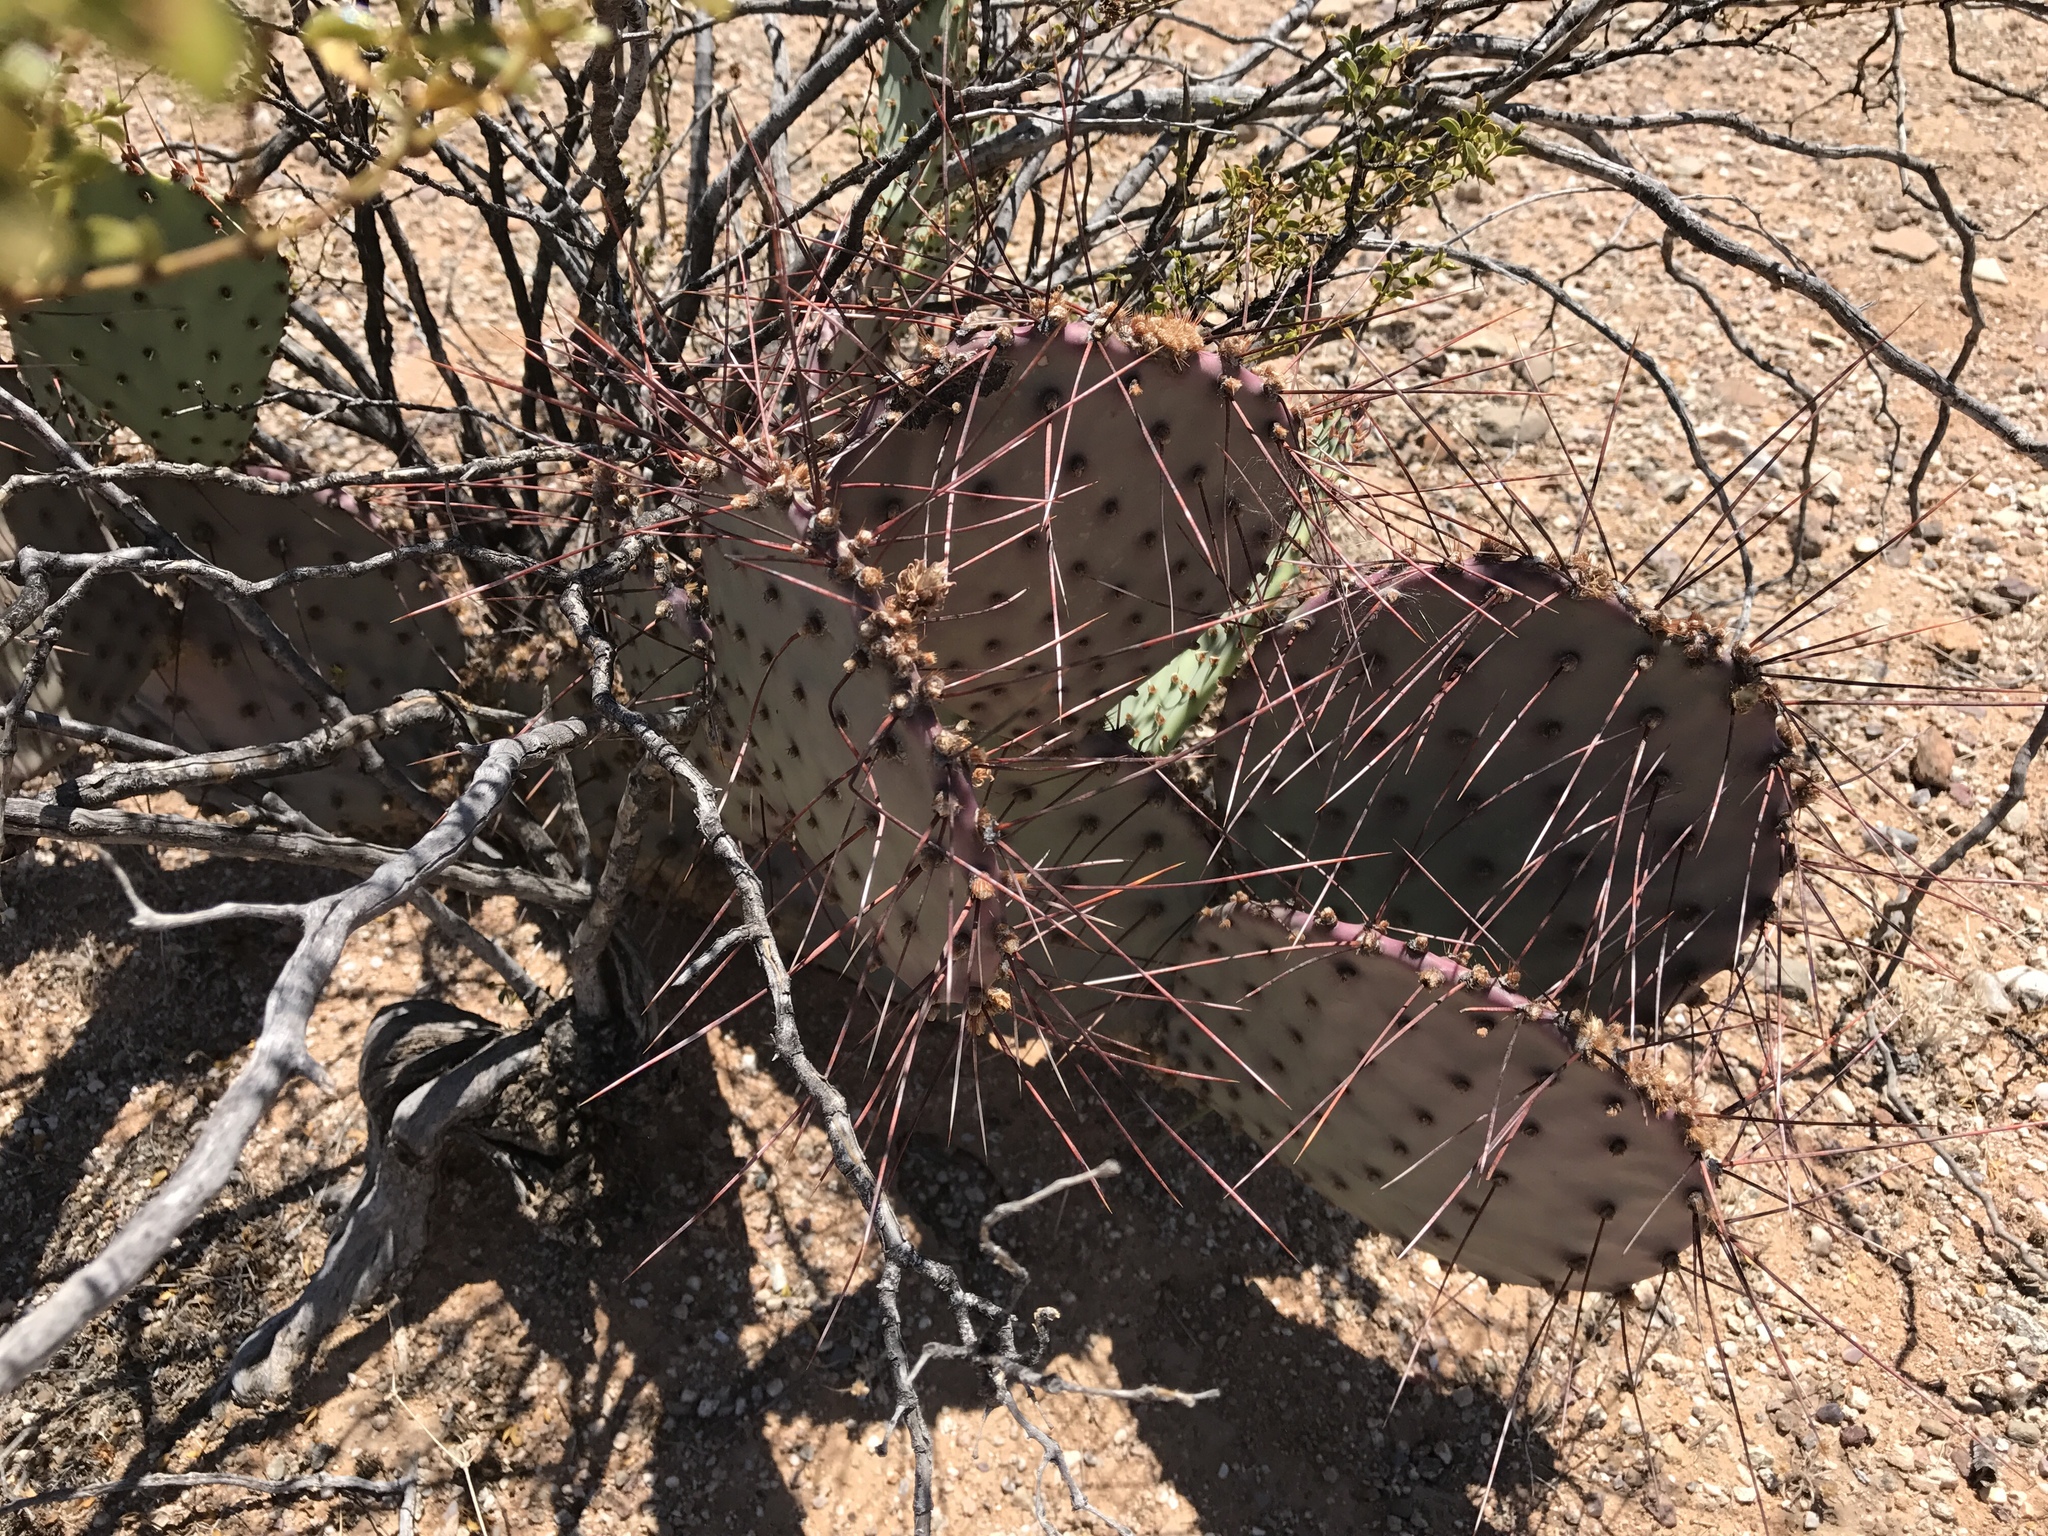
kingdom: Plantae
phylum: Tracheophyta
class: Magnoliopsida
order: Caryophyllales
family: Cactaceae
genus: Opuntia
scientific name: Opuntia macrocentra
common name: Purple prickly-pear
